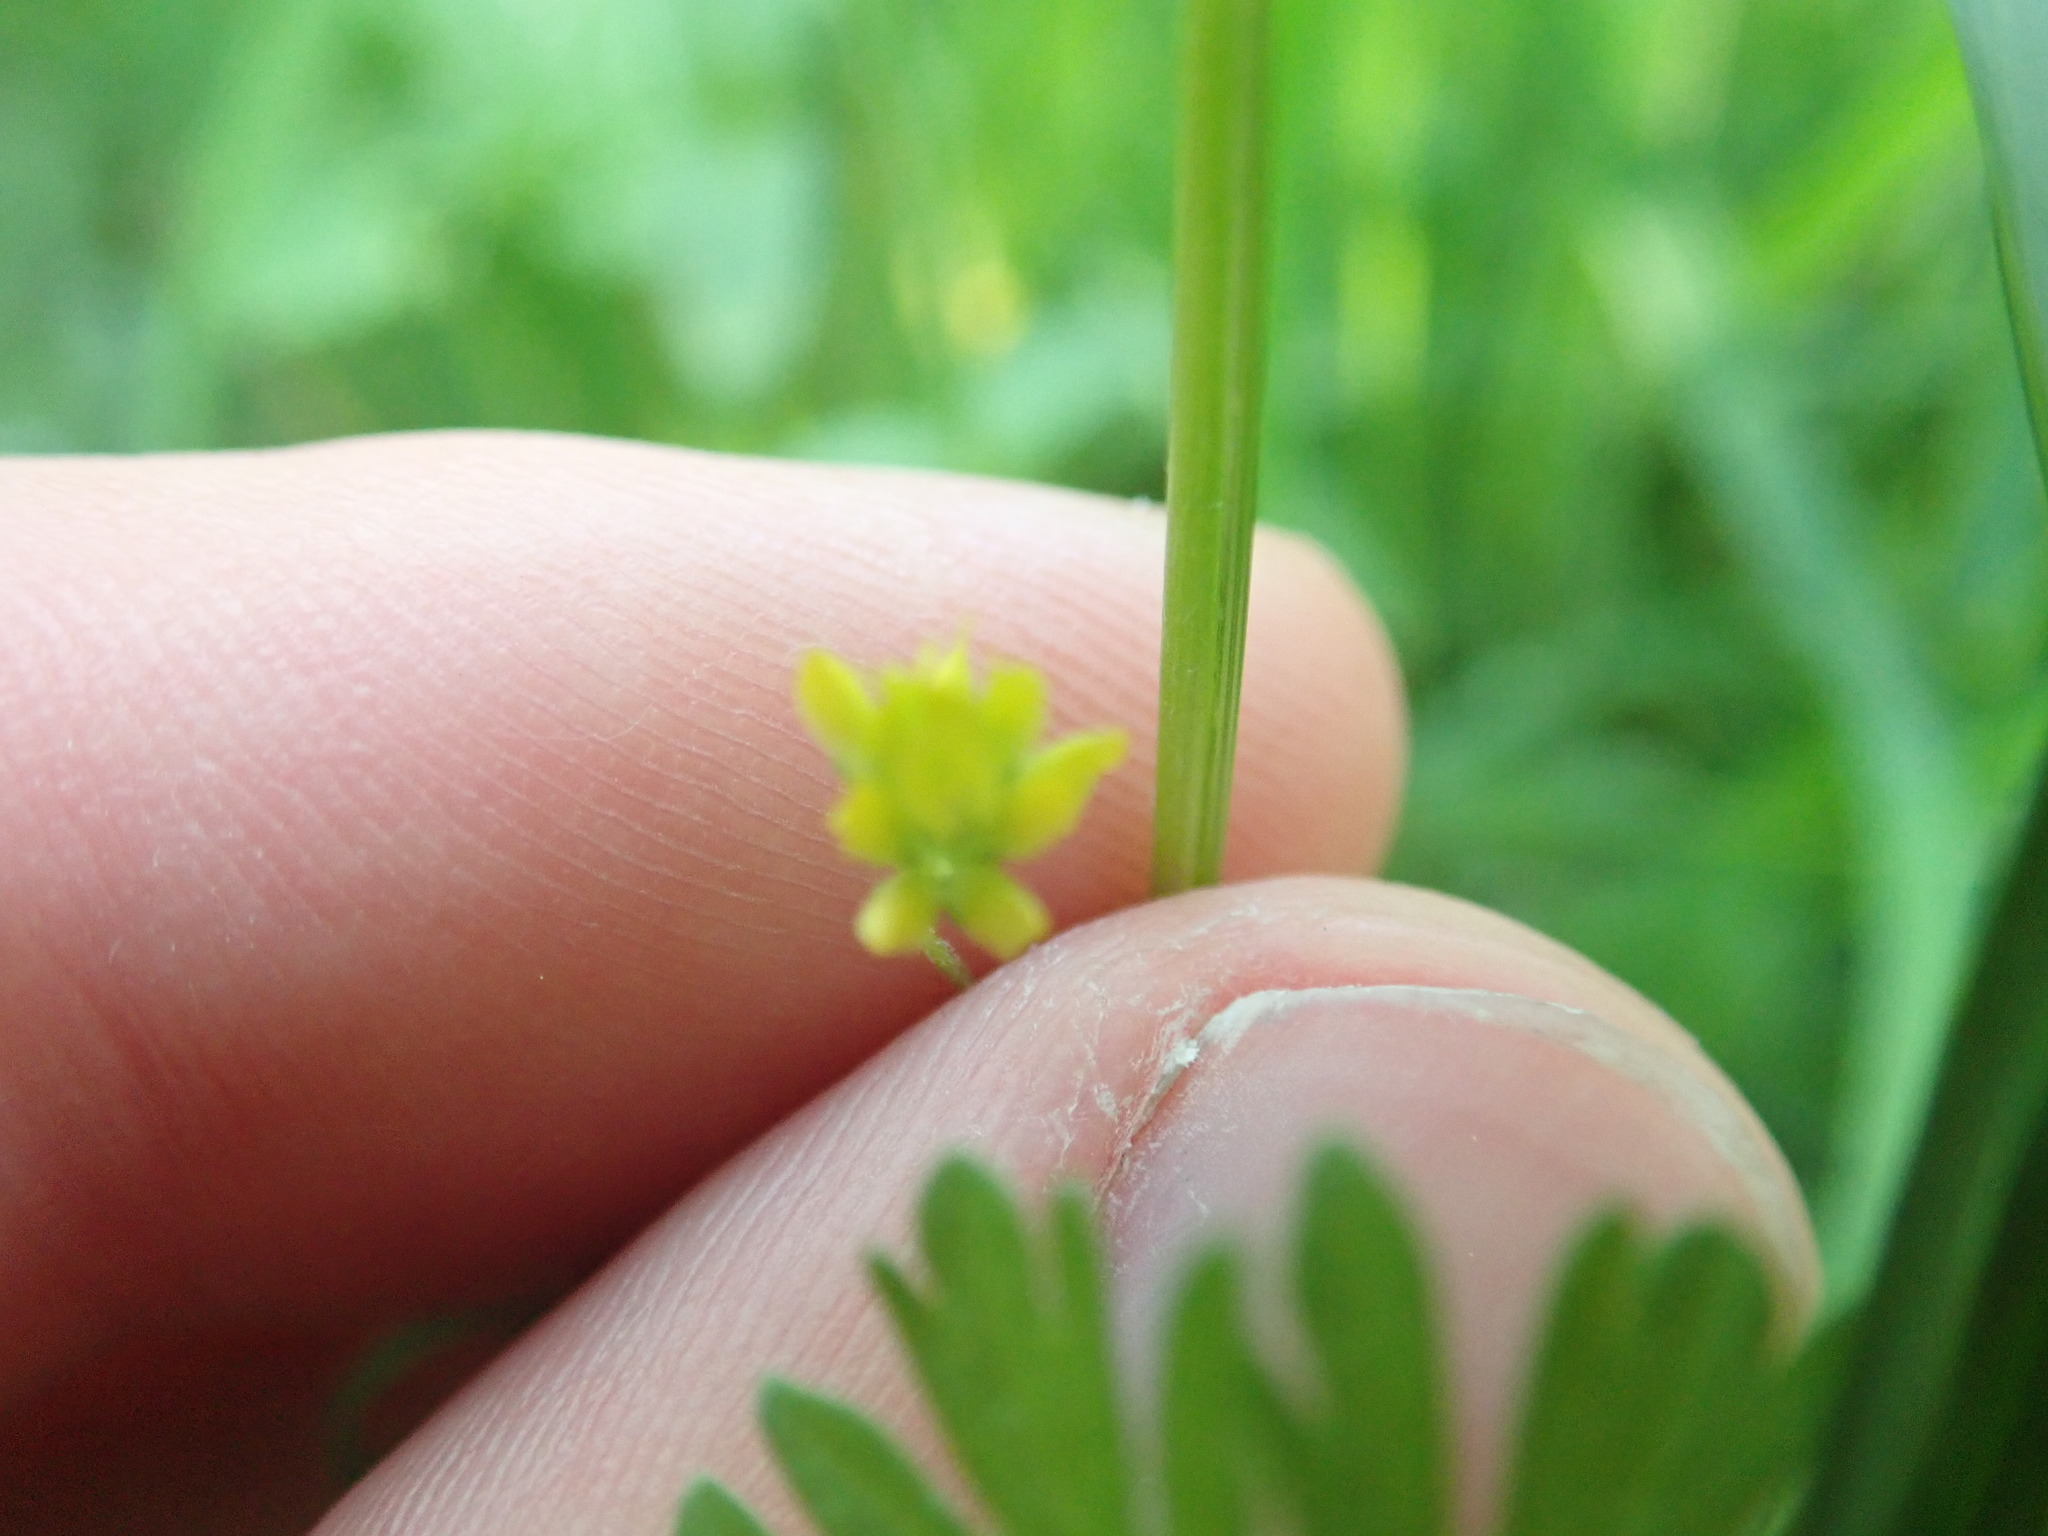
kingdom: Plantae
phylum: Tracheophyta
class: Magnoliopsida
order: Fabales
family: Fabaceae
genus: Trifolium
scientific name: Trifolium dubium
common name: Suckling clover
